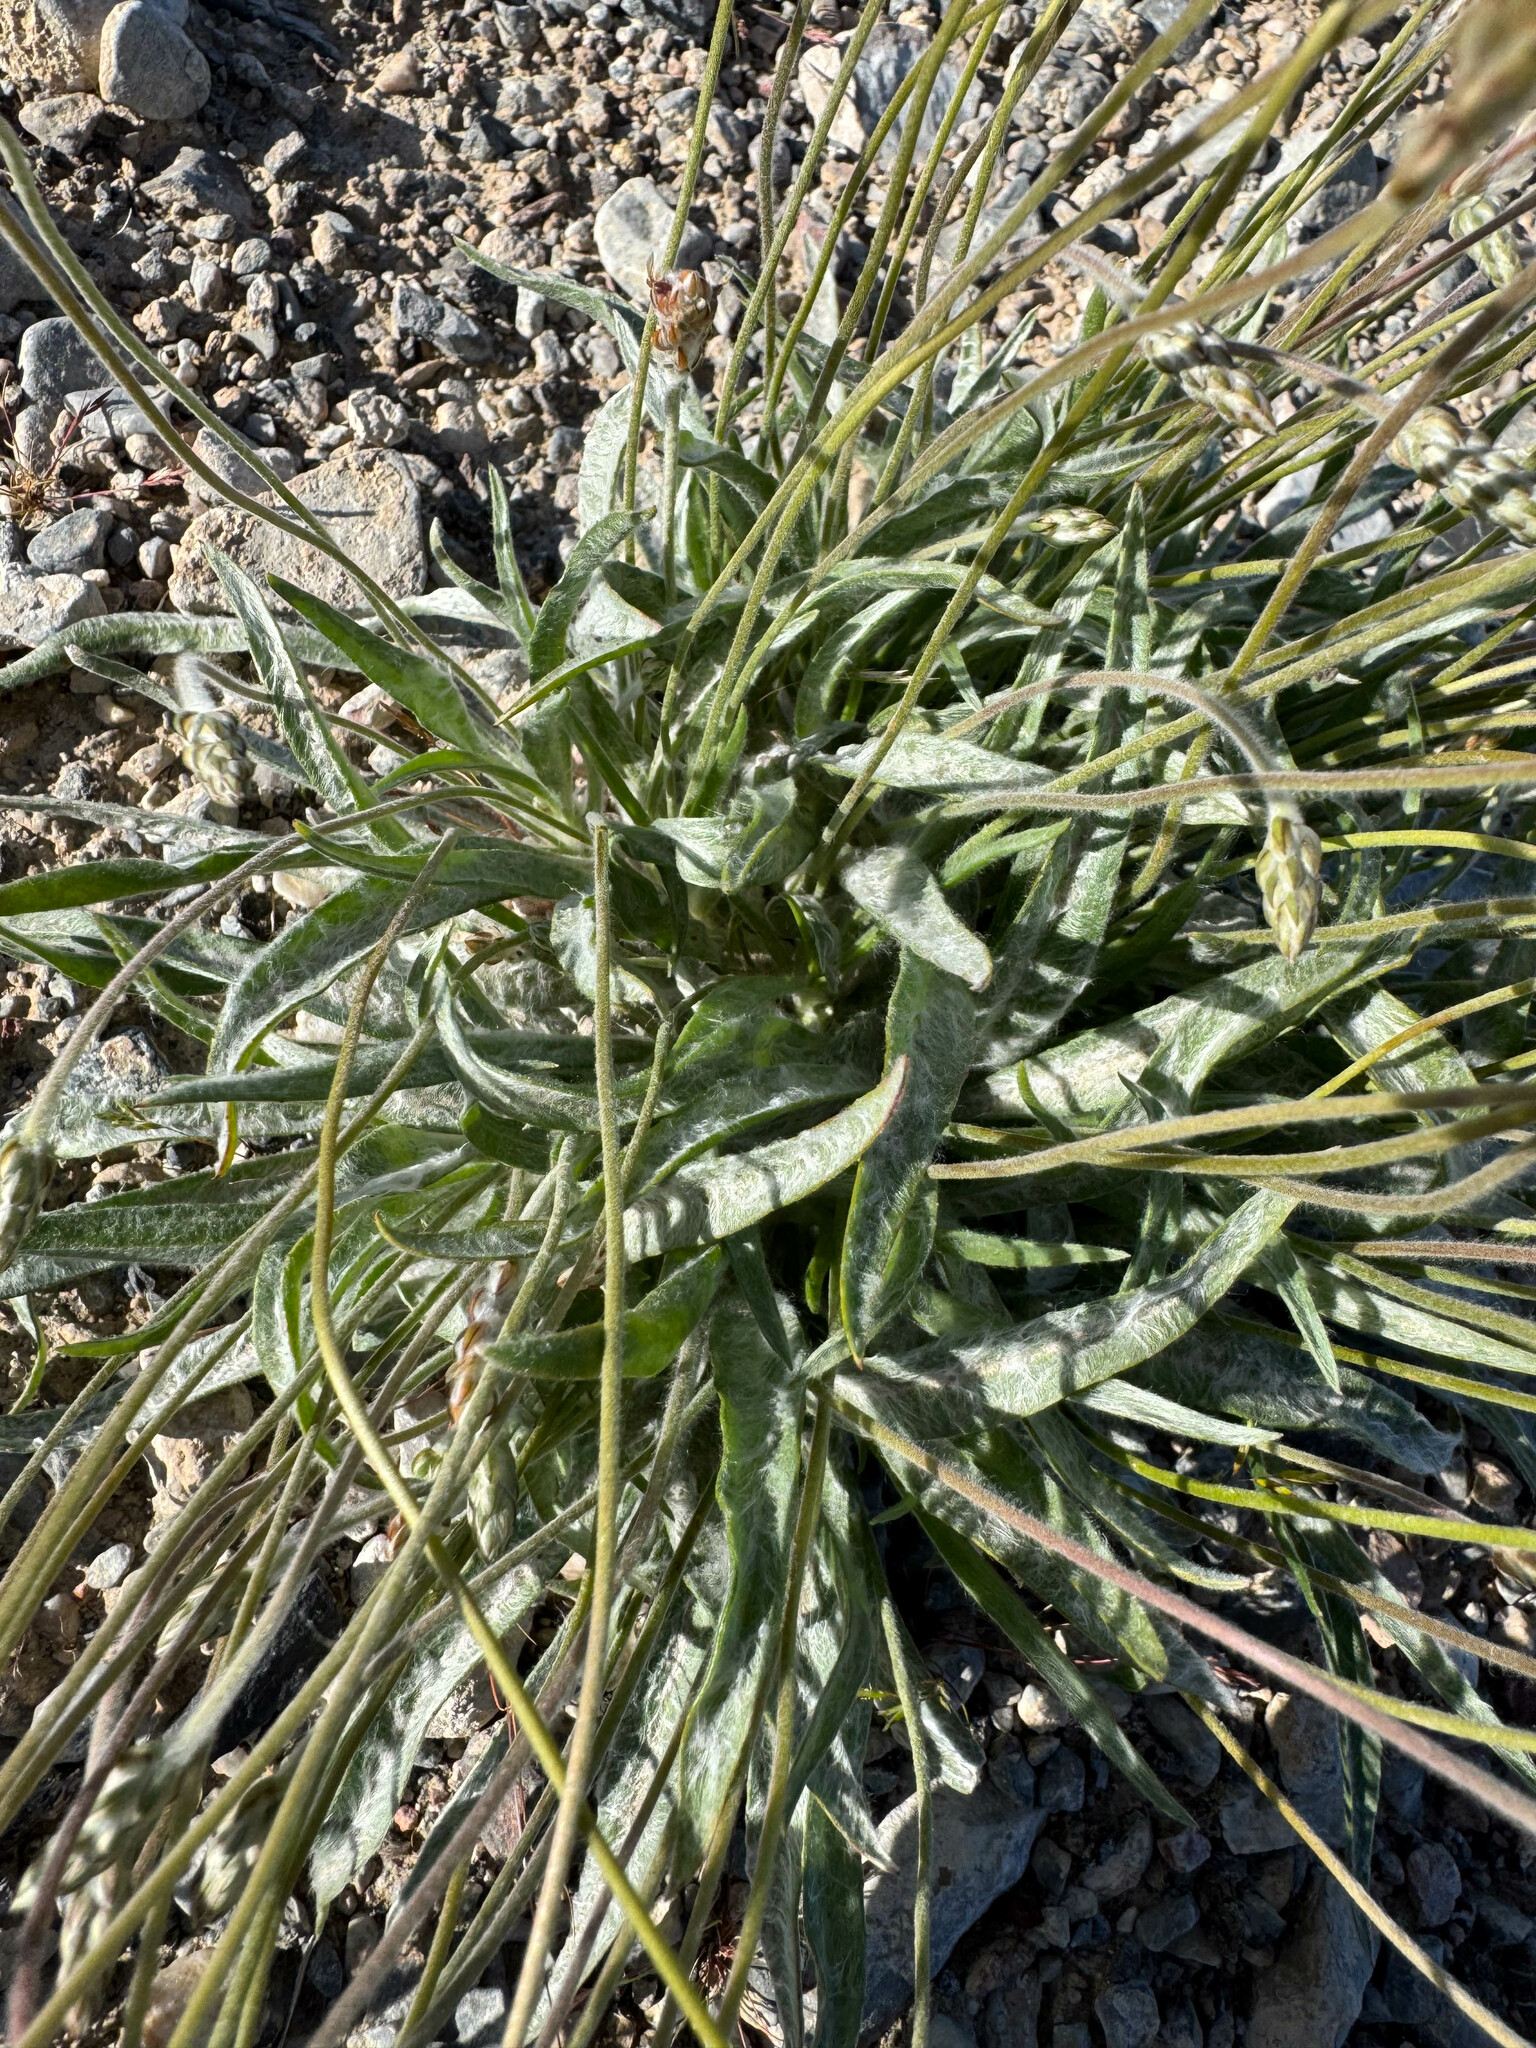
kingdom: Plantae
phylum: Tracheophyta
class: Magnoliopsida
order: Lamiales
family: Plantaginaceae
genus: Plantago
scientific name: Plantago ovata
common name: Blond plantain
